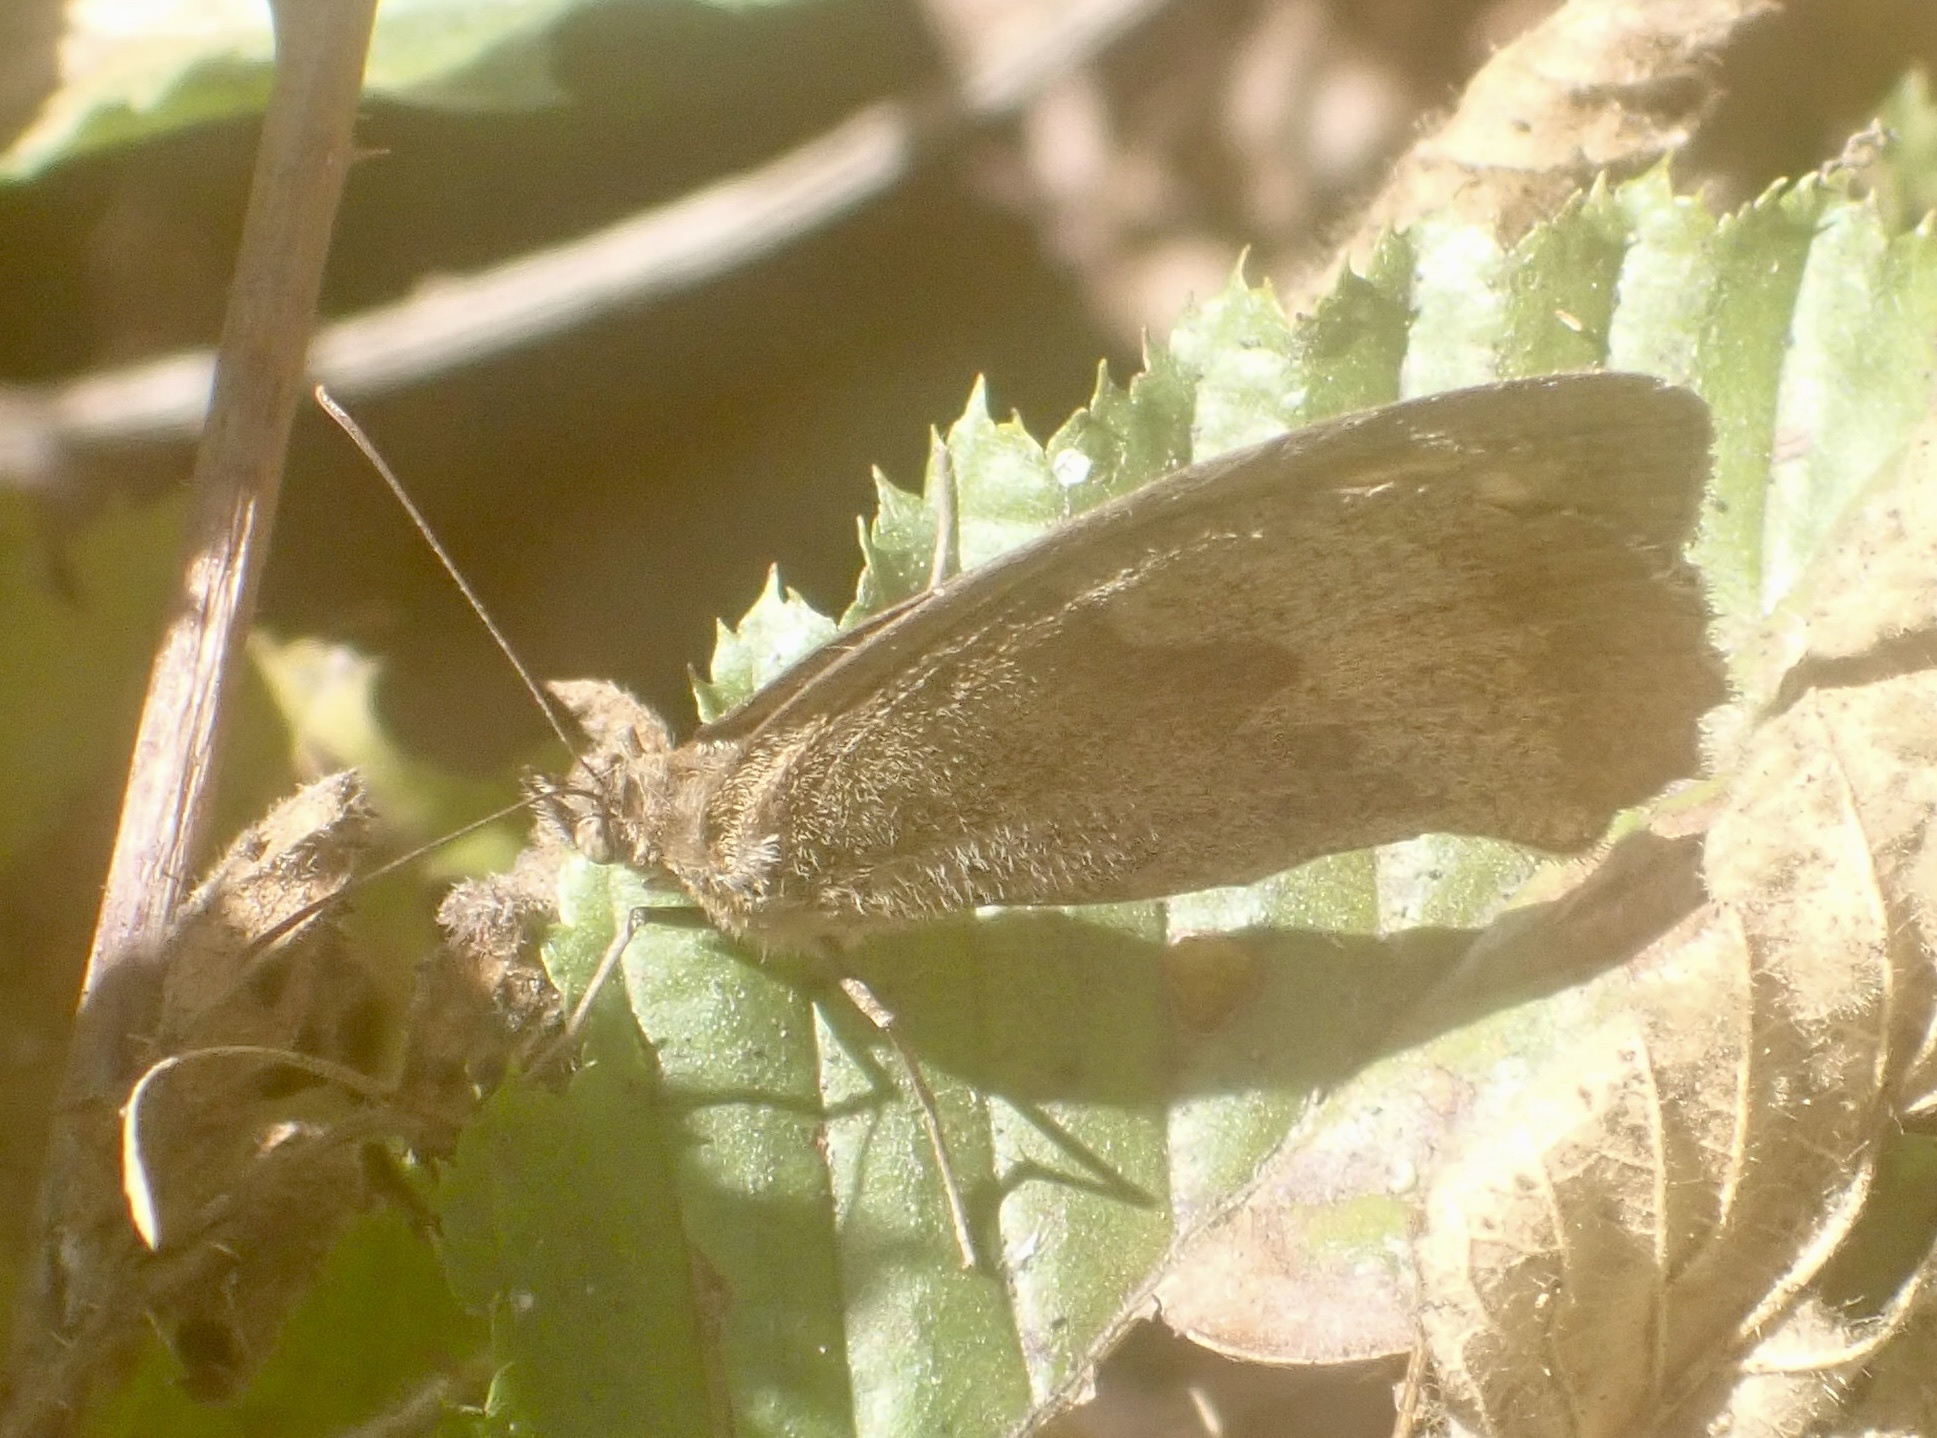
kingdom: Animalia
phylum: Arthropoda
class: Insecta
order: Lepidoptera
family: Nymphalidae
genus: Maniola
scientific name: Maniola jurtina
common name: Meadow brown
